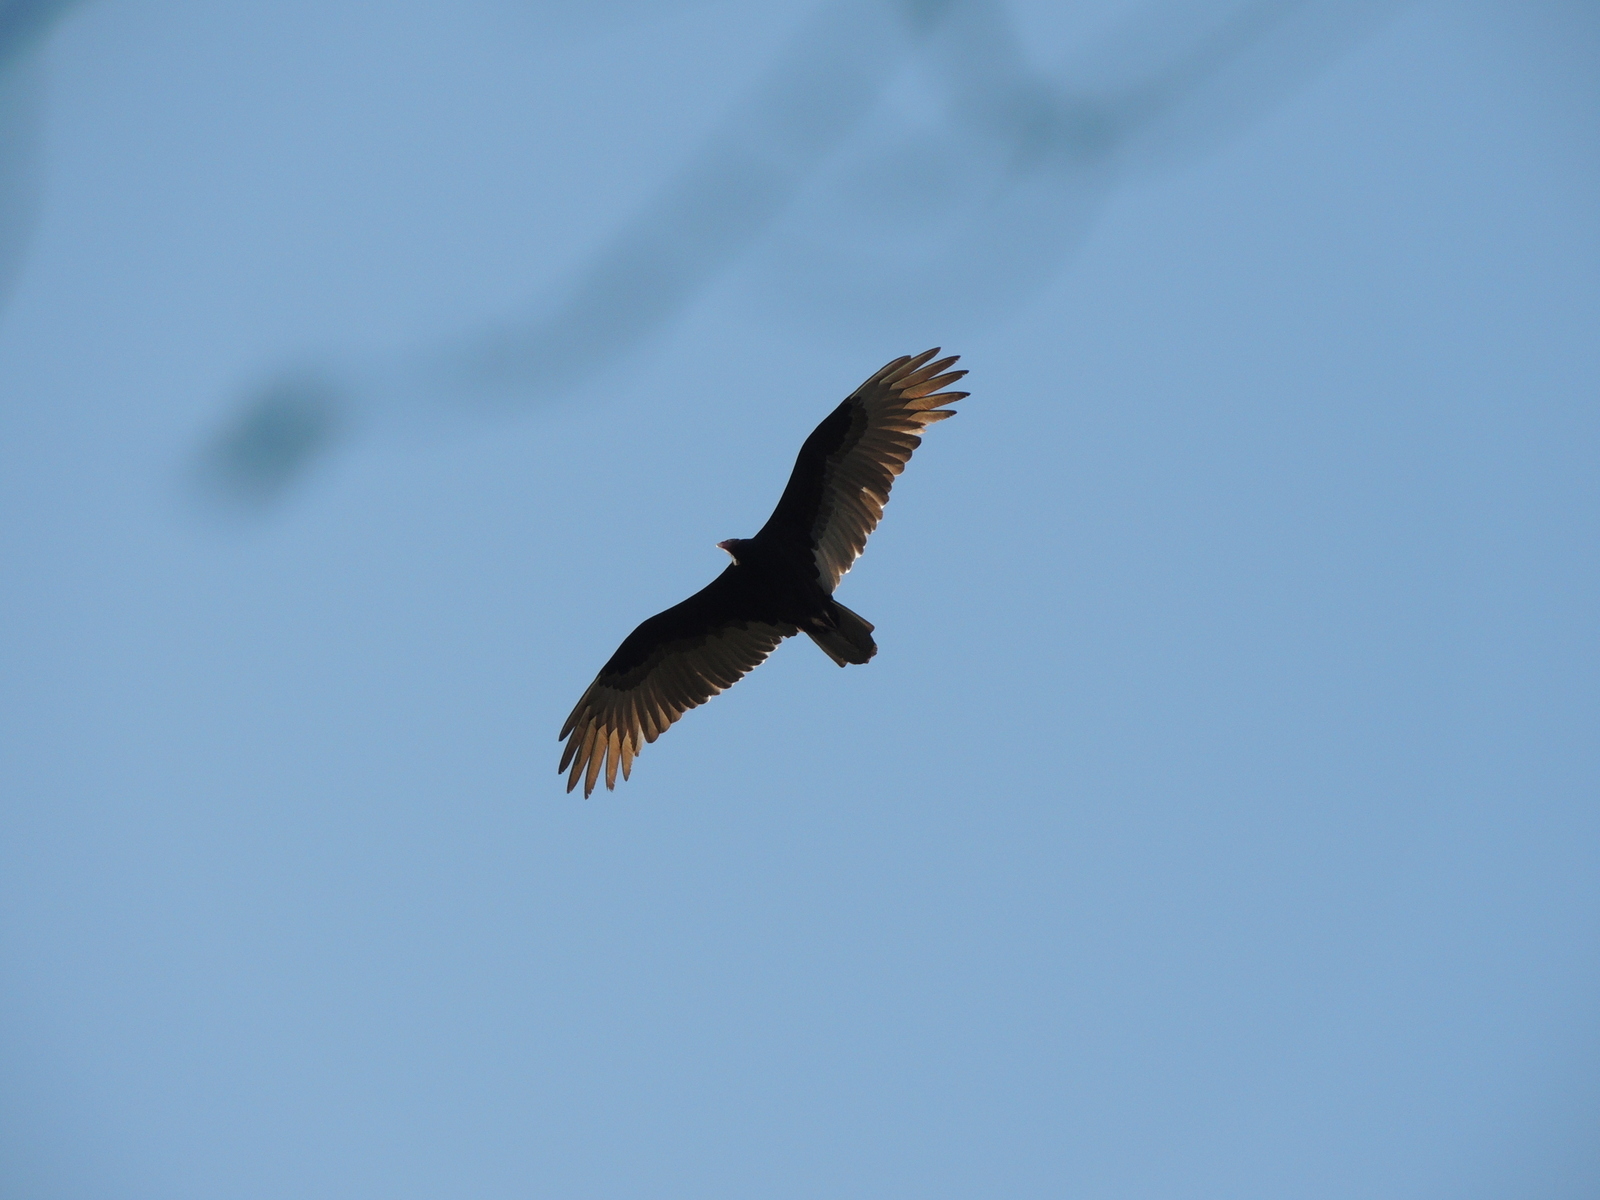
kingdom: Animalia
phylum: Chordata
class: Aves
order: Accipitriformes
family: Cathartidae
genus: Cathartes
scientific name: Cathartes aura
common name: Turkey vulture
